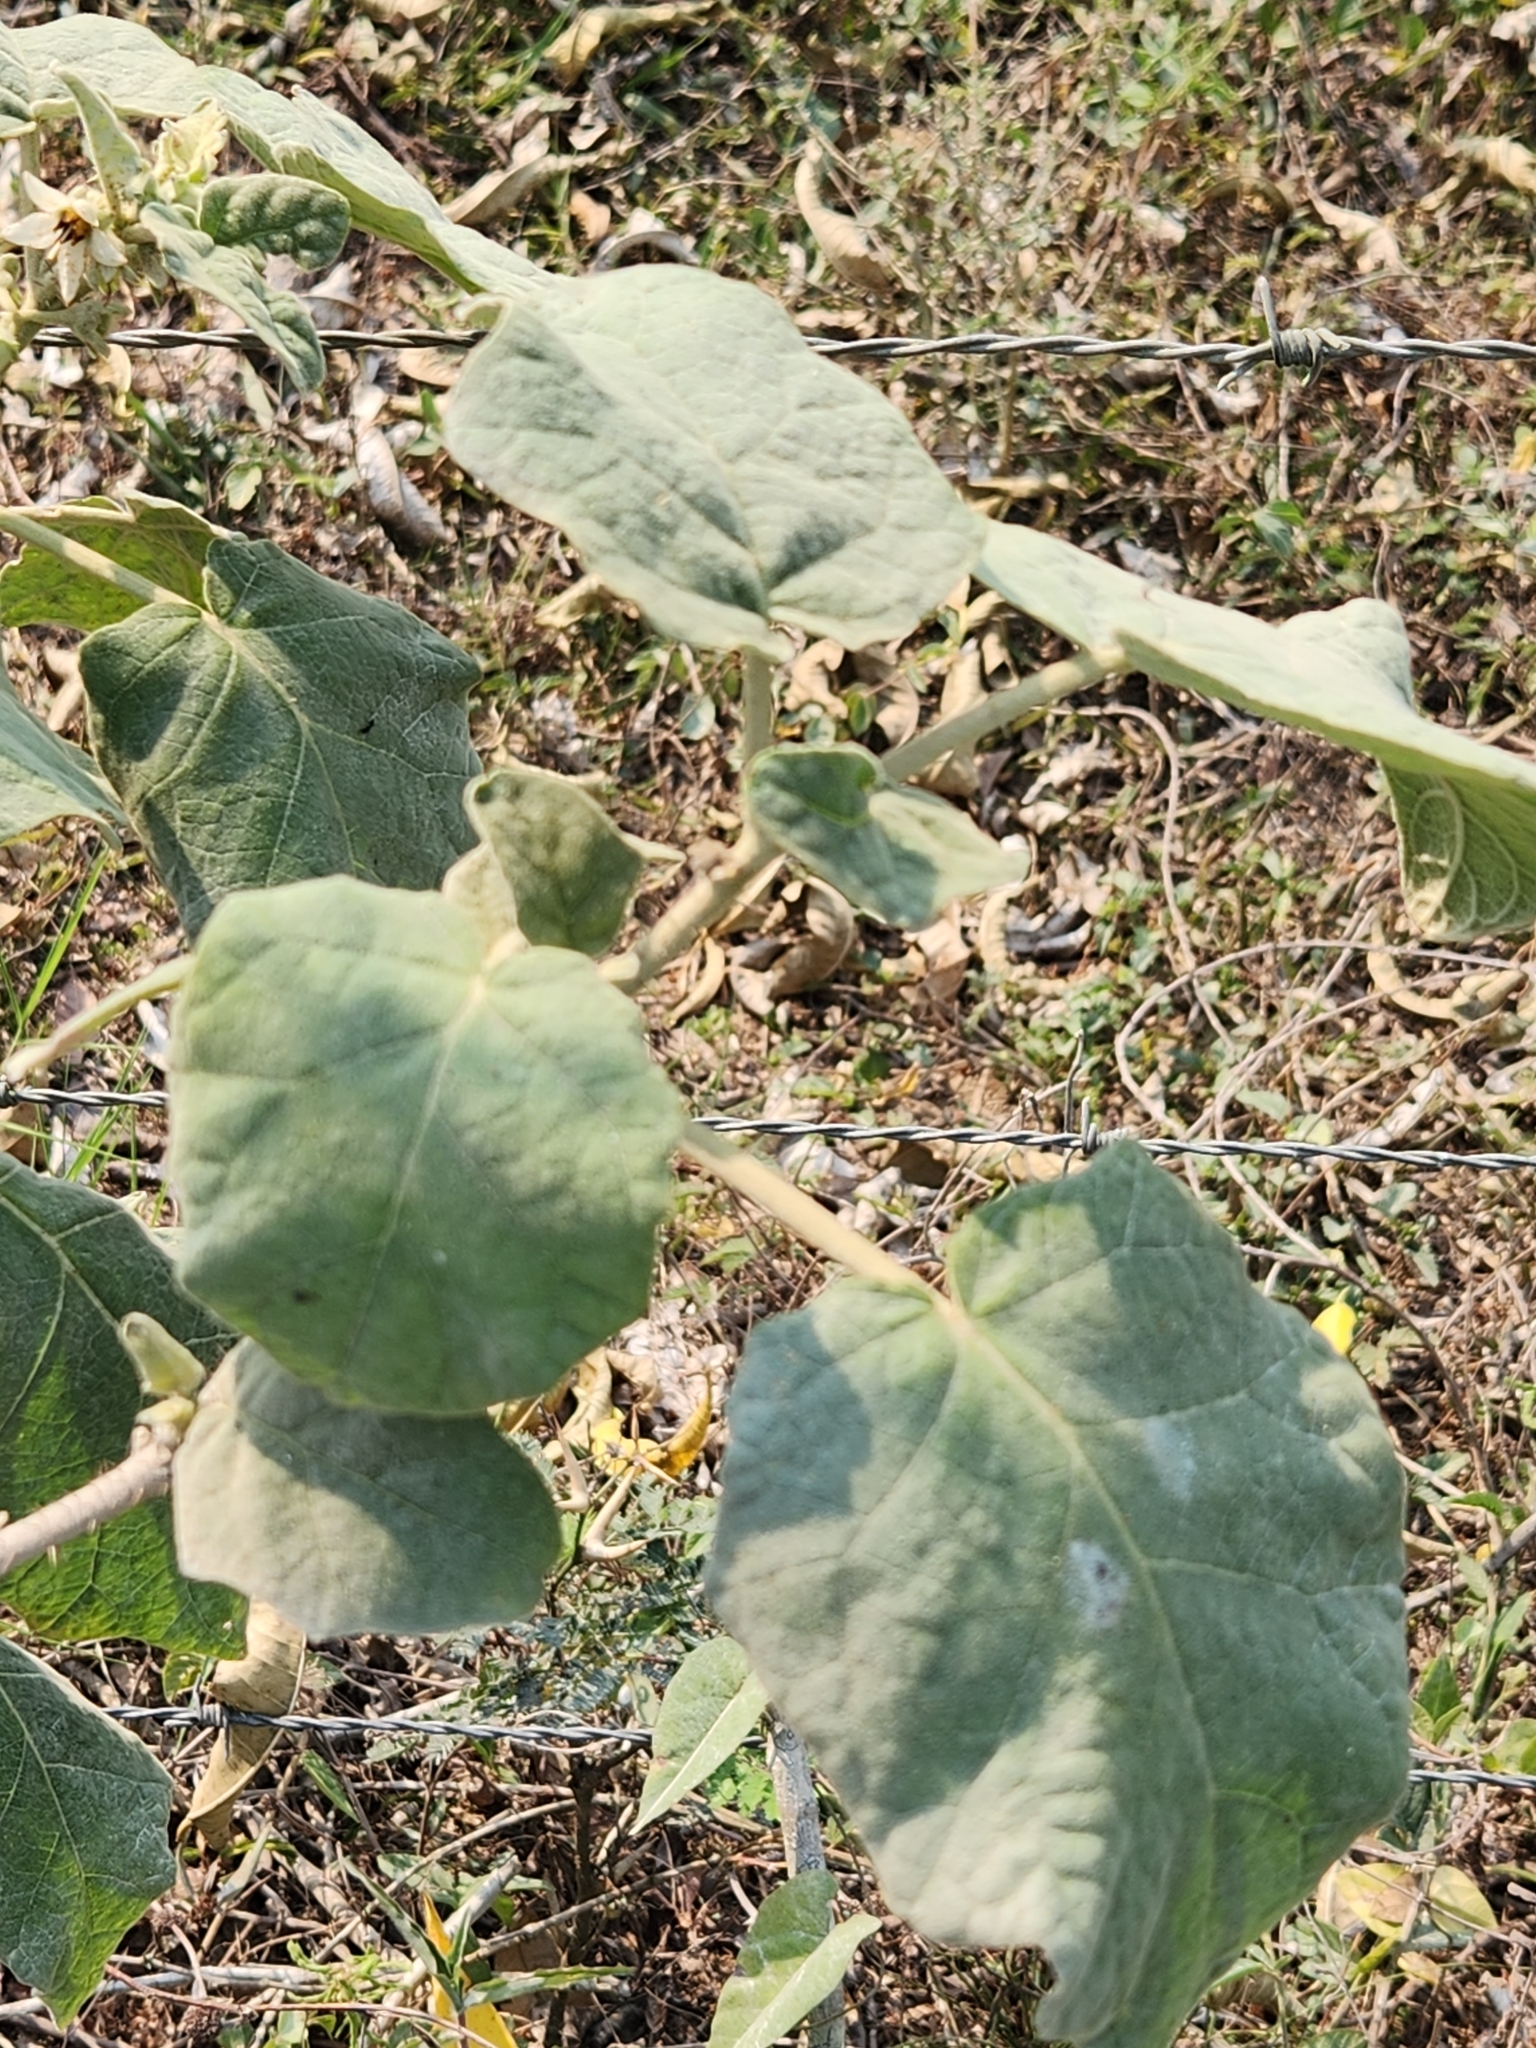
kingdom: Plantae
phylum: Tracheophyta
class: Magnoliopsida
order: Solanales
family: Solanaceae
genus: Solanum
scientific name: Solanum hirtum
